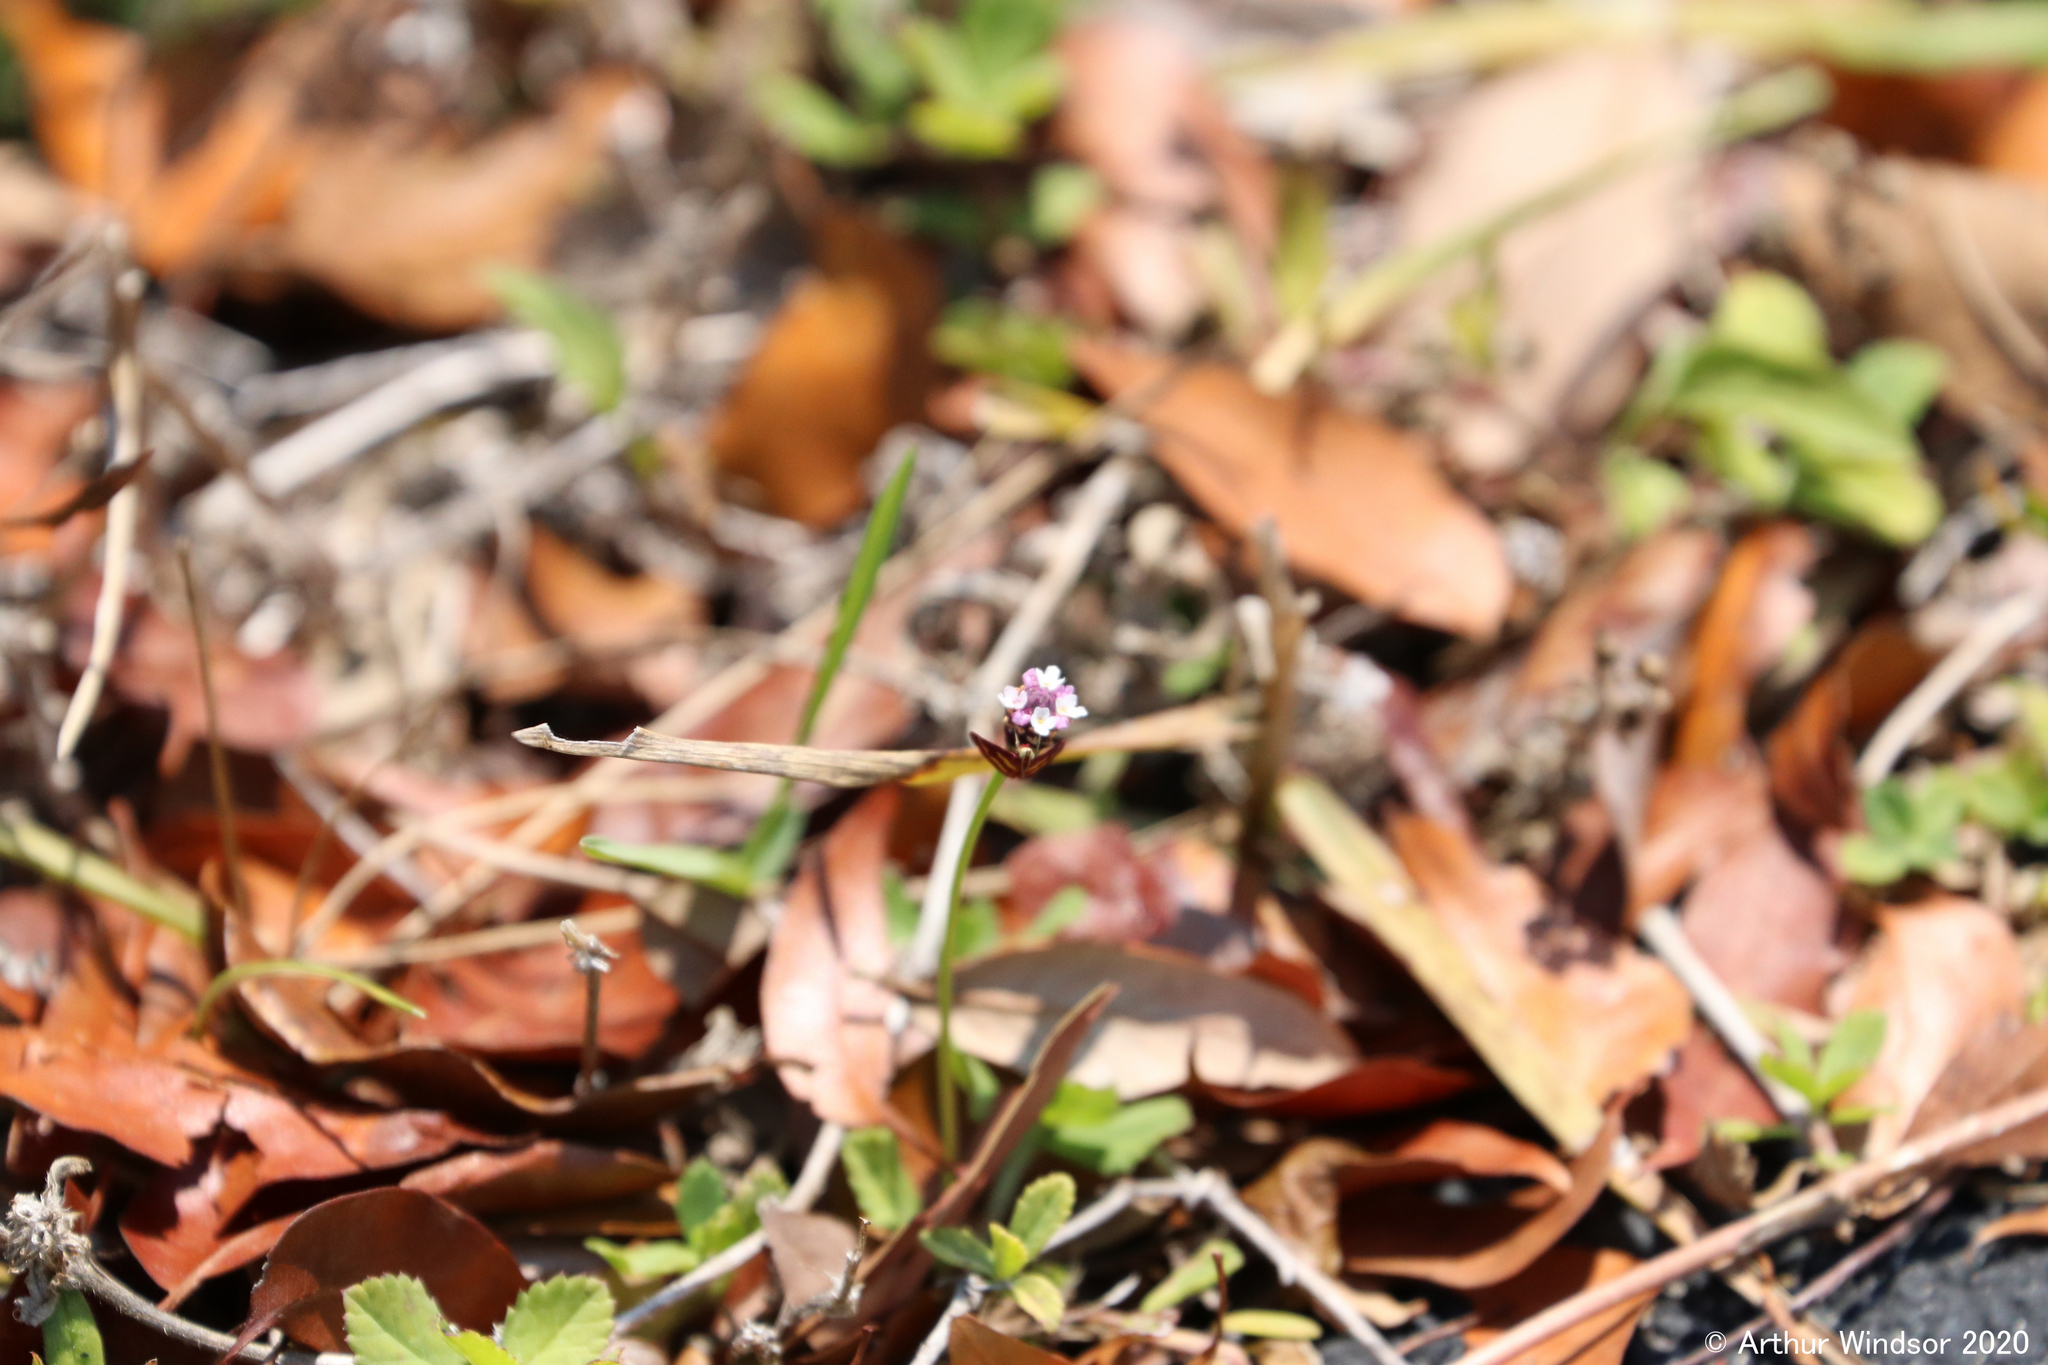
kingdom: Animalia
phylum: Arthropoda
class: Insecta
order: Lepidoptera
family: Crambidae
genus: Pyrausta
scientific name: Pyrausta tyralis
